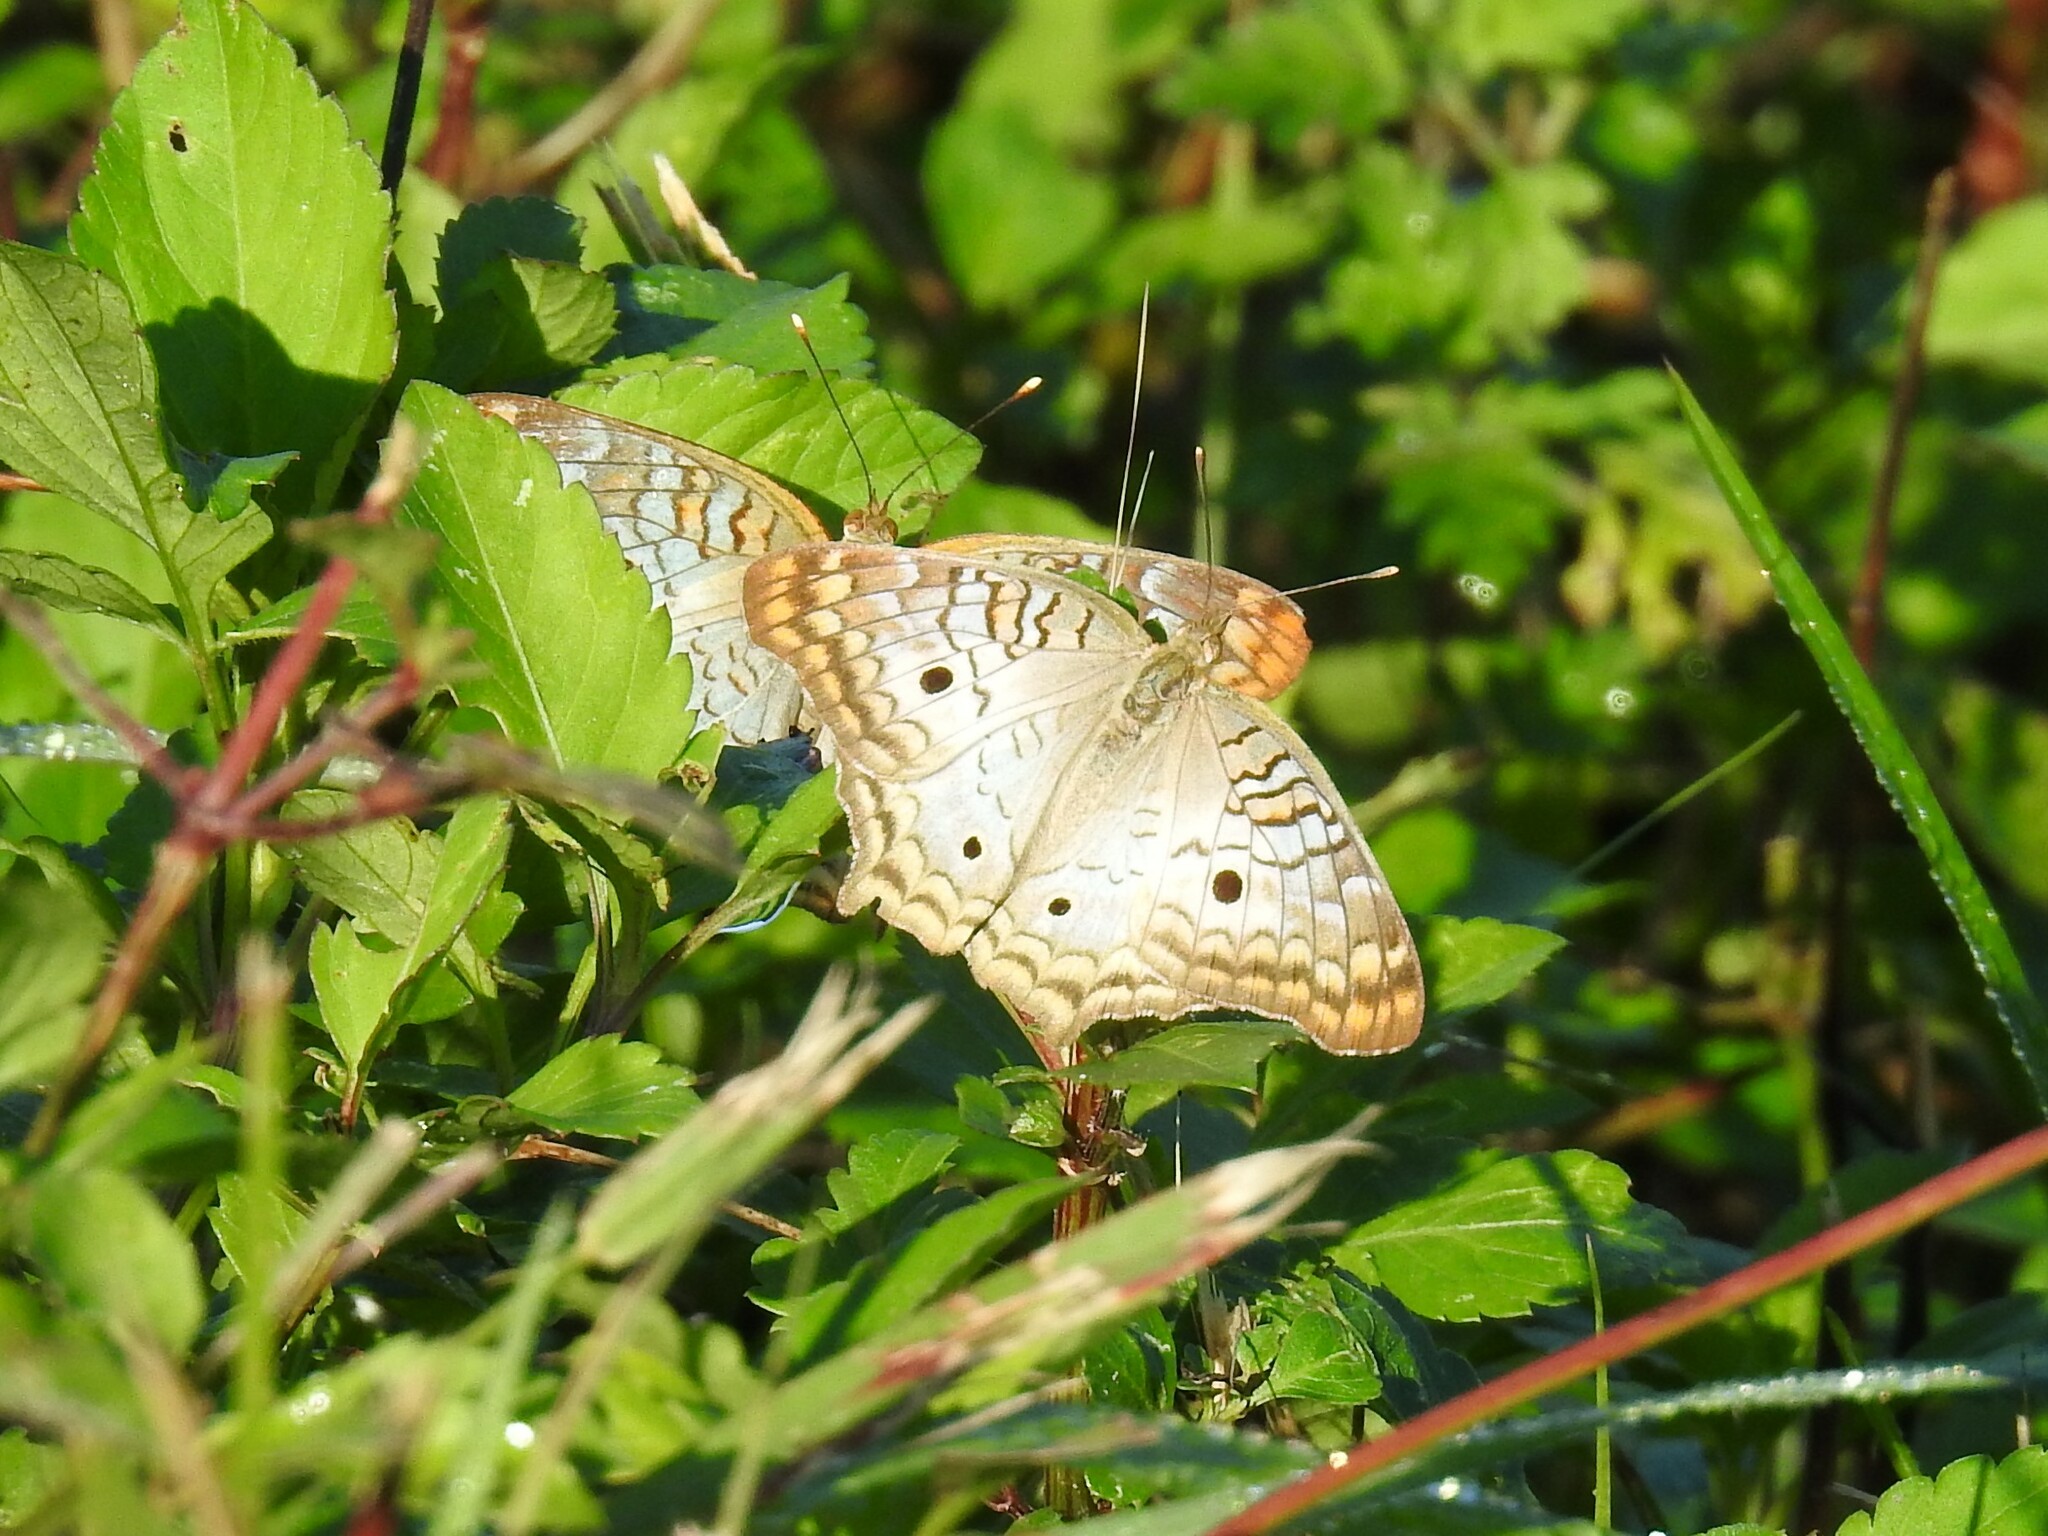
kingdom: Animalia
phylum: Arthropoda
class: Insecta
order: Lepidoptera
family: Nymphalidae
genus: Anartia
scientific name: Anartia jatrophae
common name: White peacock
